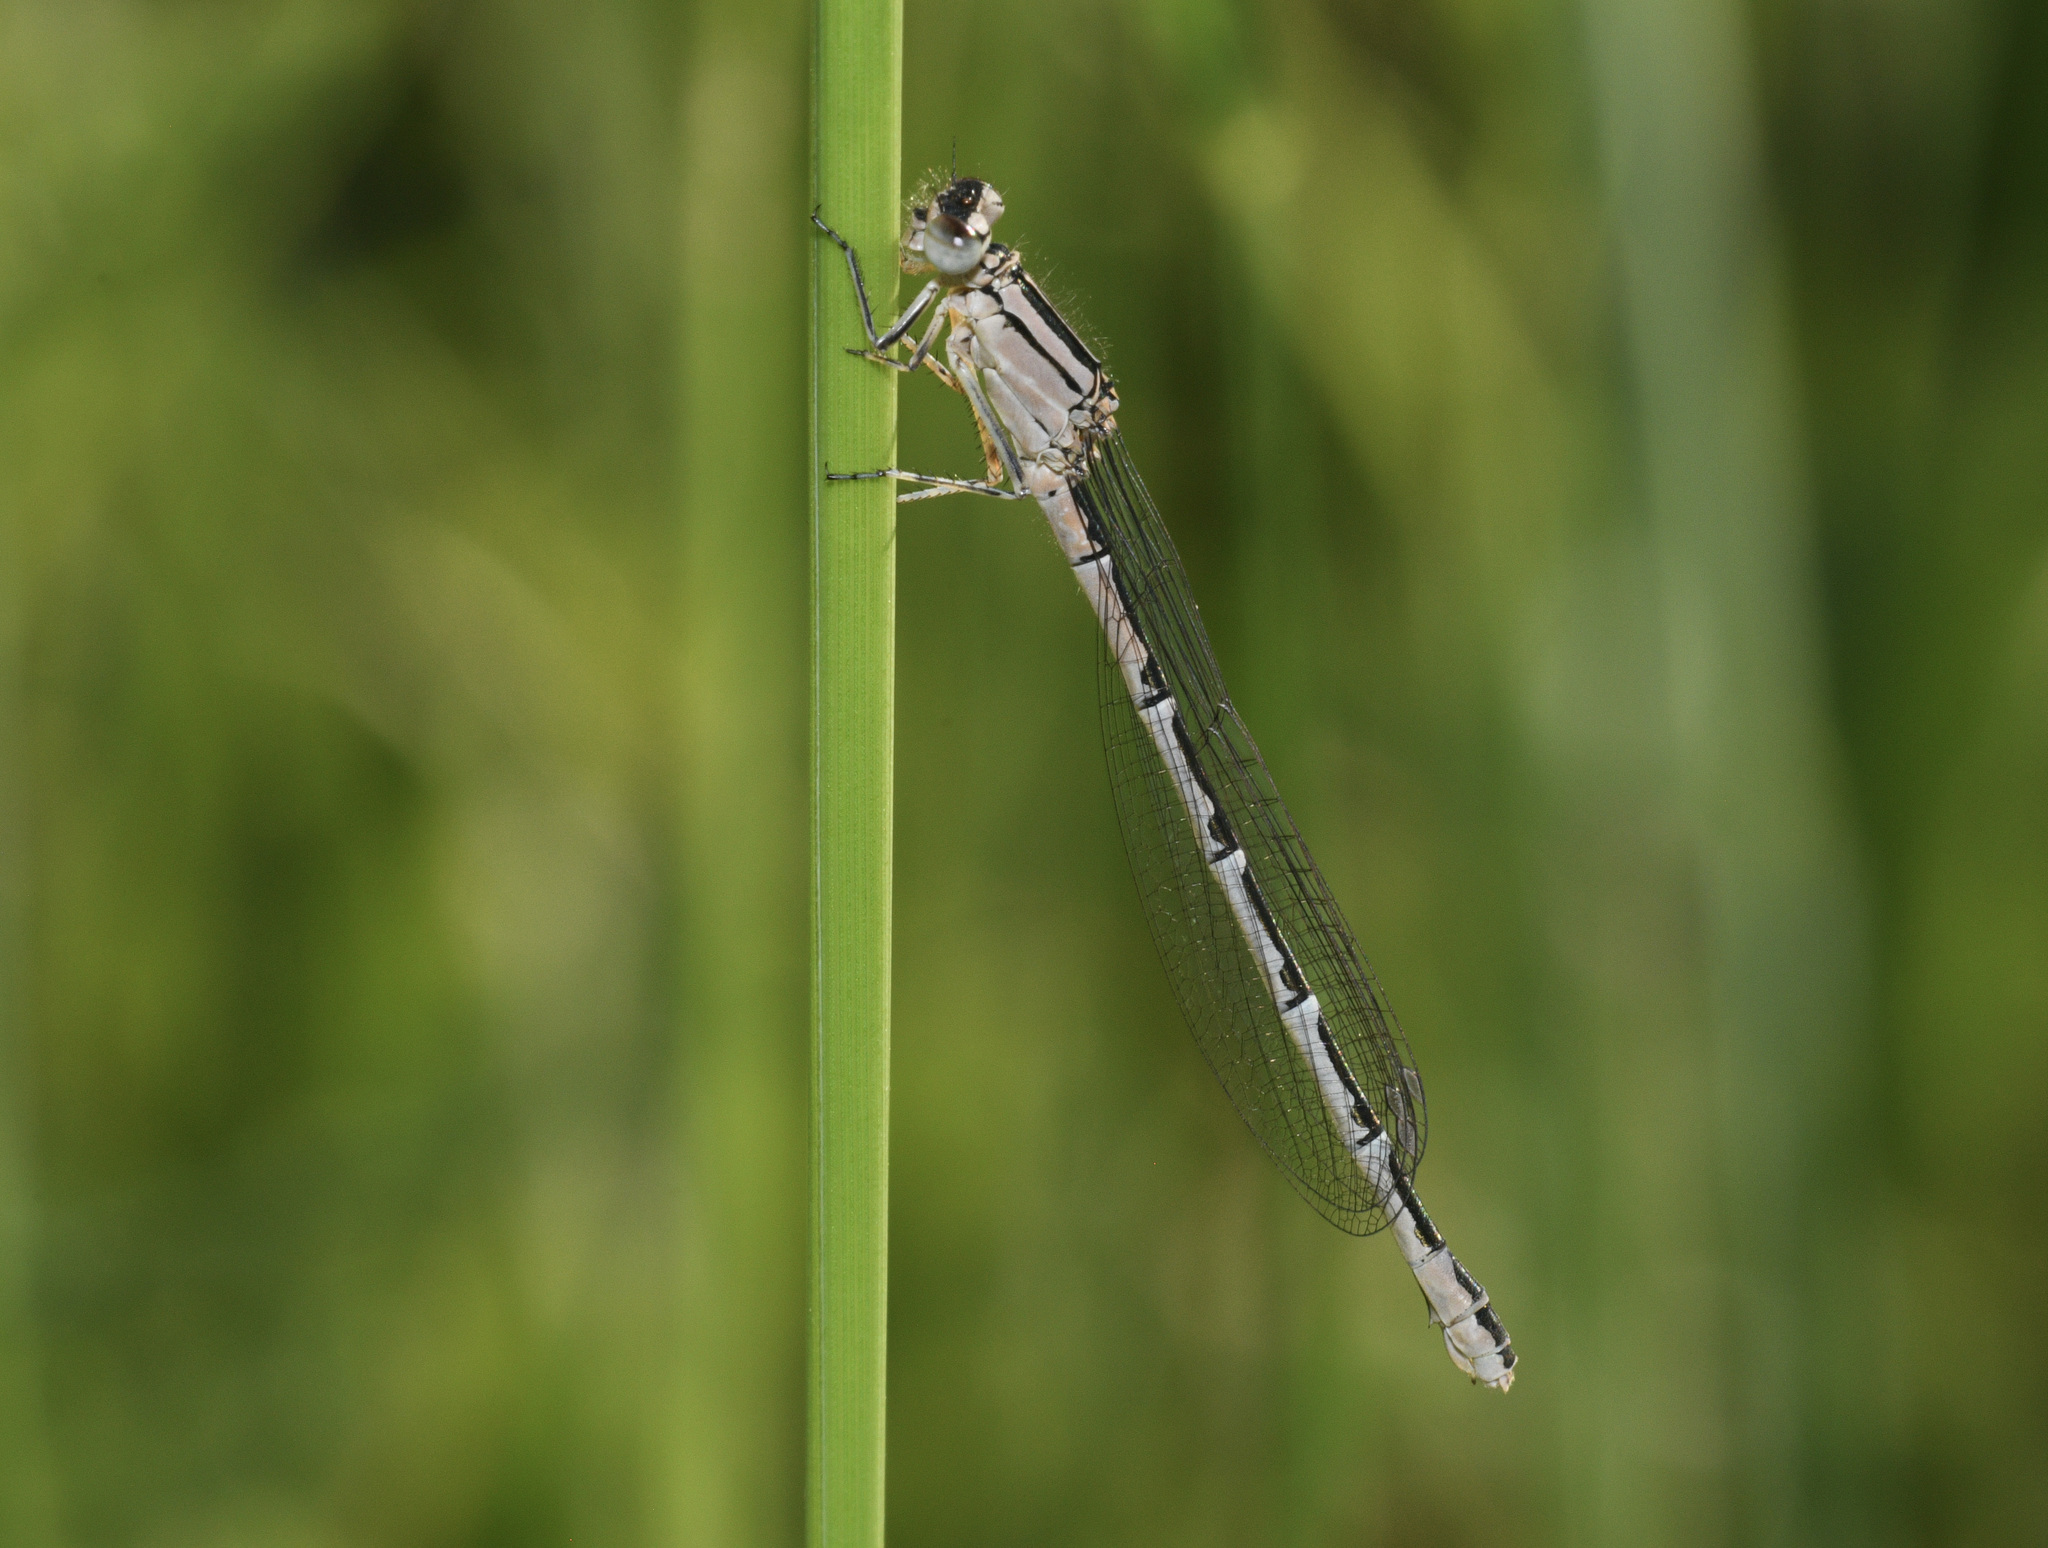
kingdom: Animalia
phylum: Arthropoda
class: Insecta
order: Odonata
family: Coenagrionidae
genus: Enallagma
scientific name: Enallagma cyathigerum
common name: Common blue damselfly
